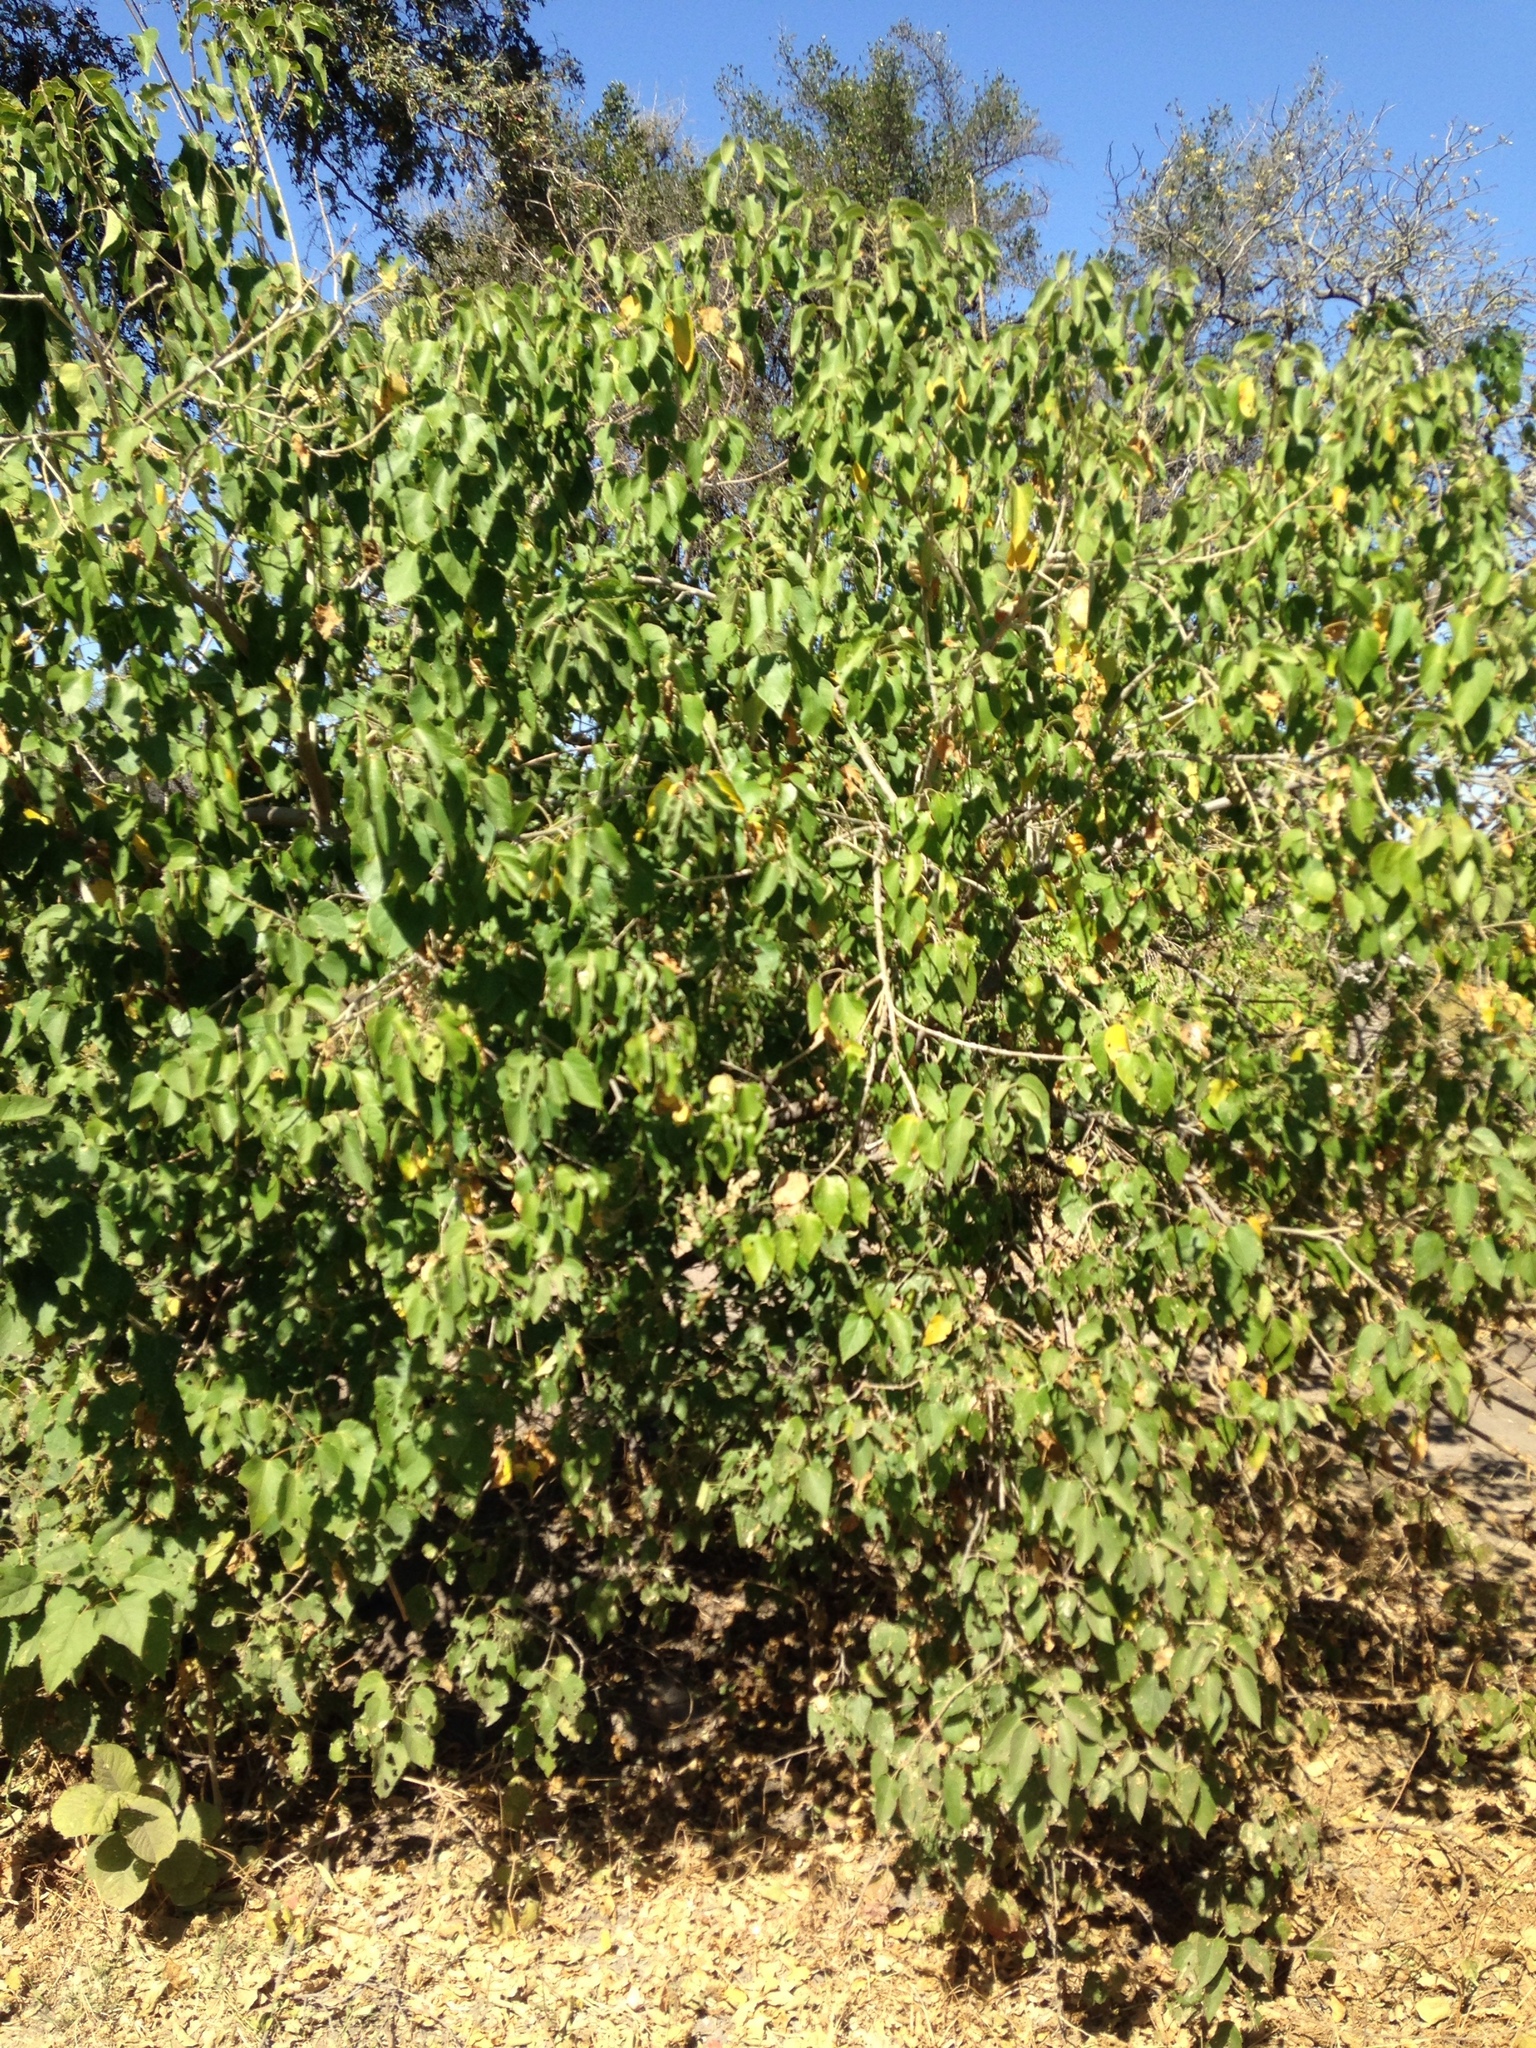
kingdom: Plantae
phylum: Tracheophyta
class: Magnoliopsida
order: Malpighiales
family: Euphorbiaceae
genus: Croton
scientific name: Croton megalobotrys
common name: Large fever berry
